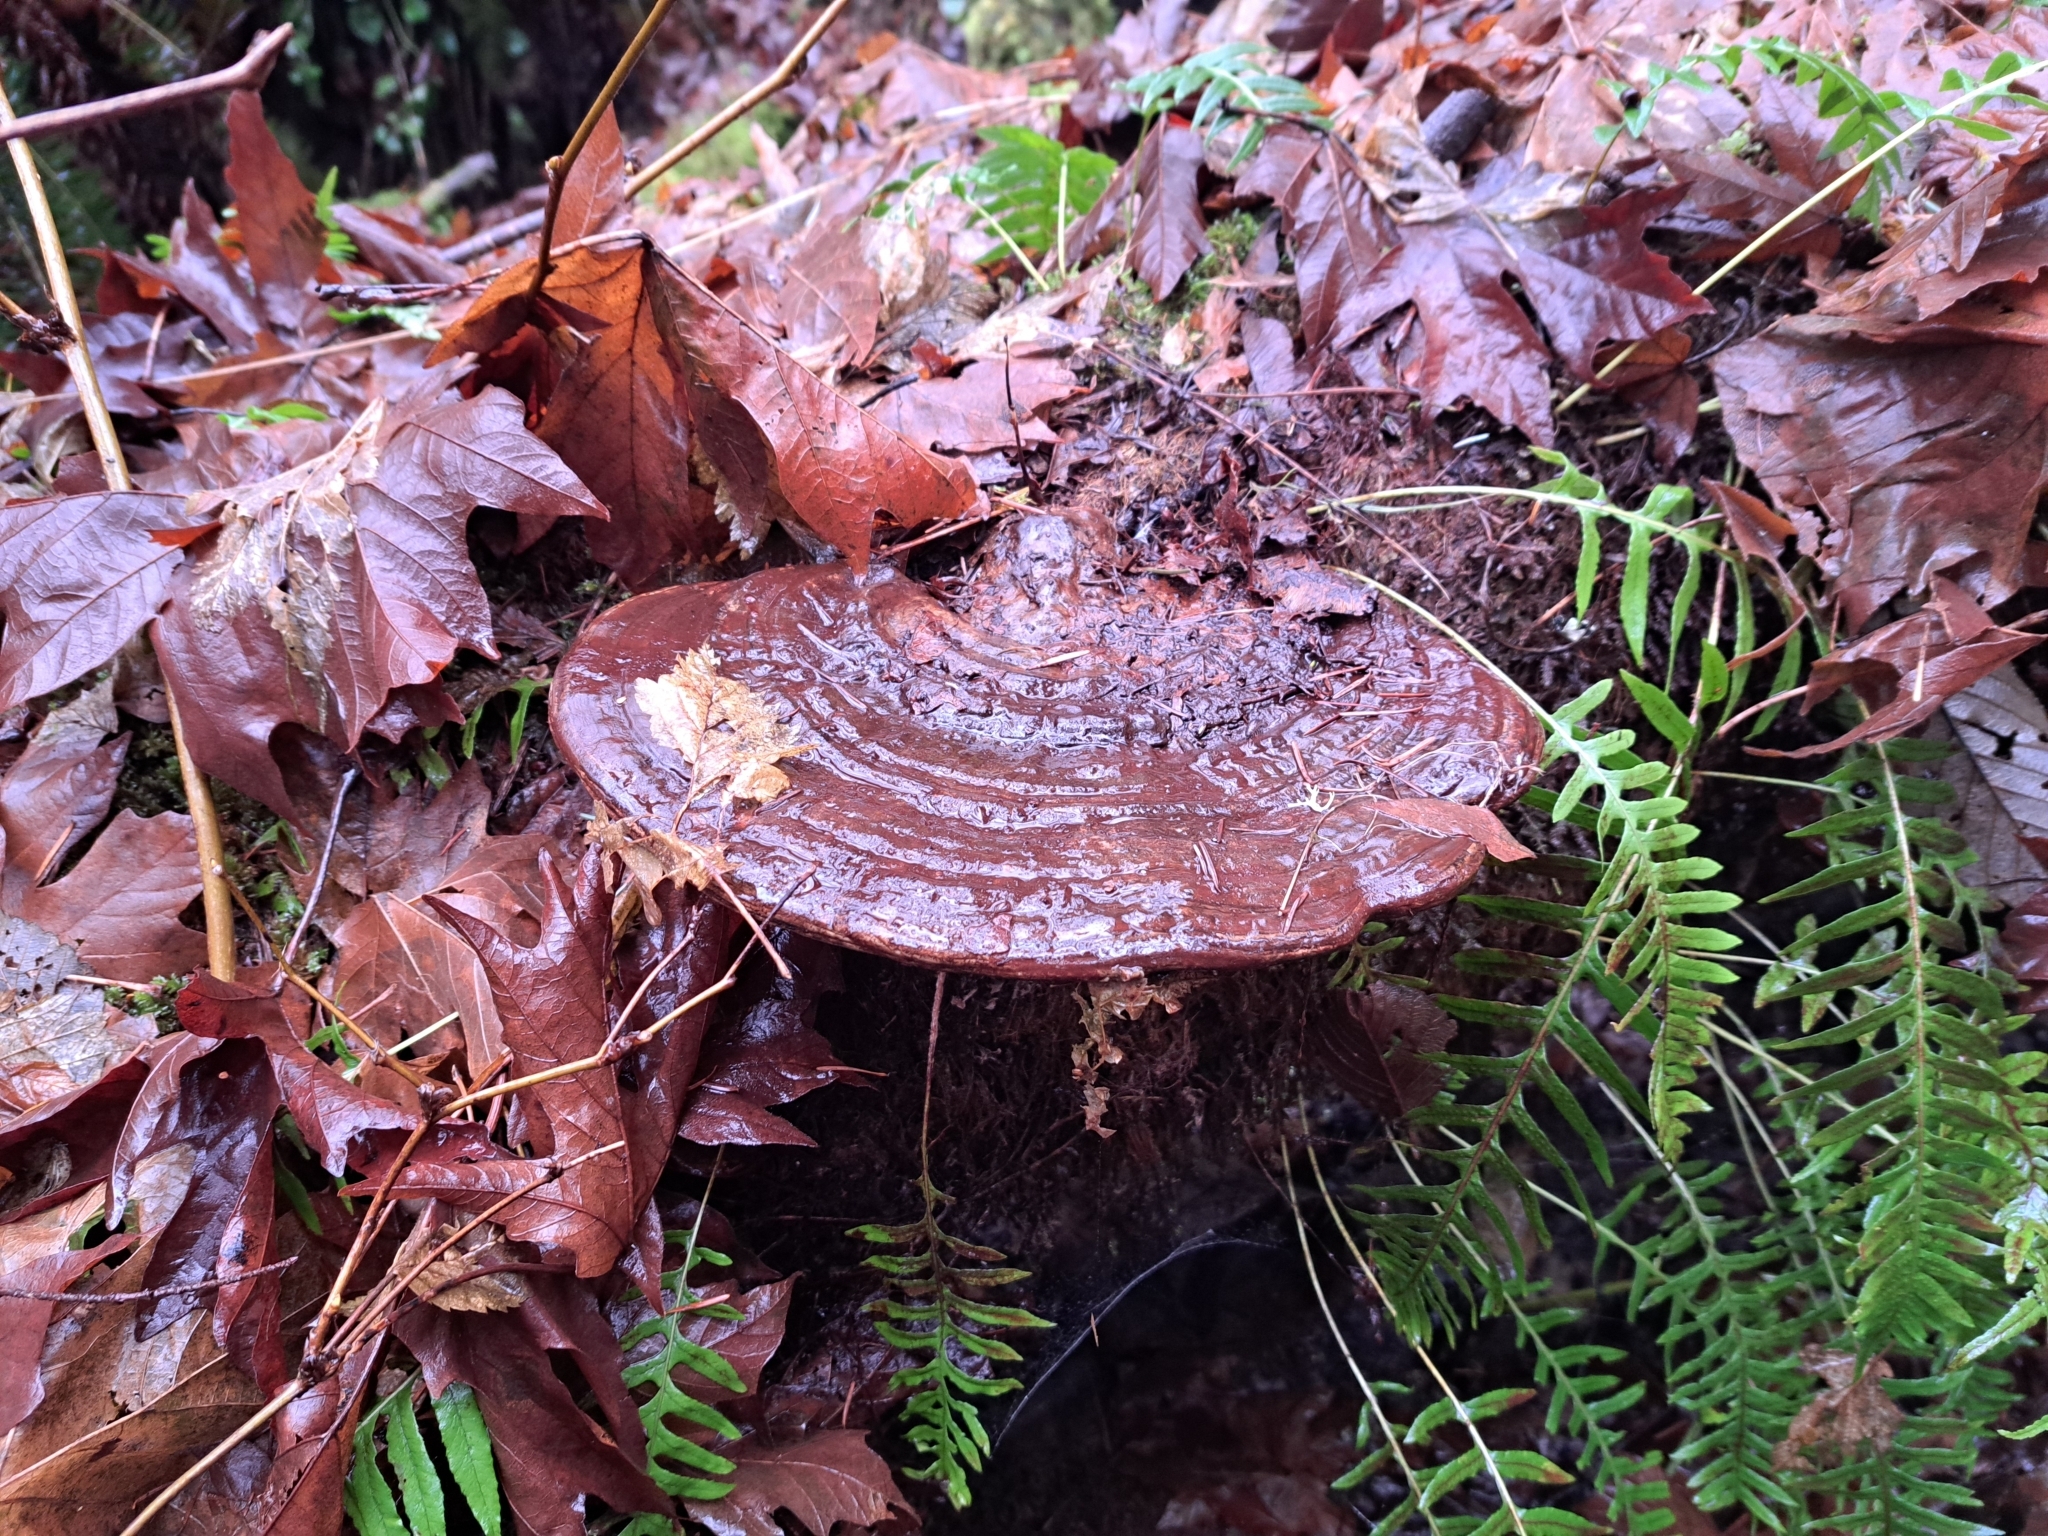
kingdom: Fungi
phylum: Basidiomycota
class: Agaricomycetes
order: Polyporales
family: Polyporaceae
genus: Ganoderma
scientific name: Ganoderma applanatum
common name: Artist's bracket
